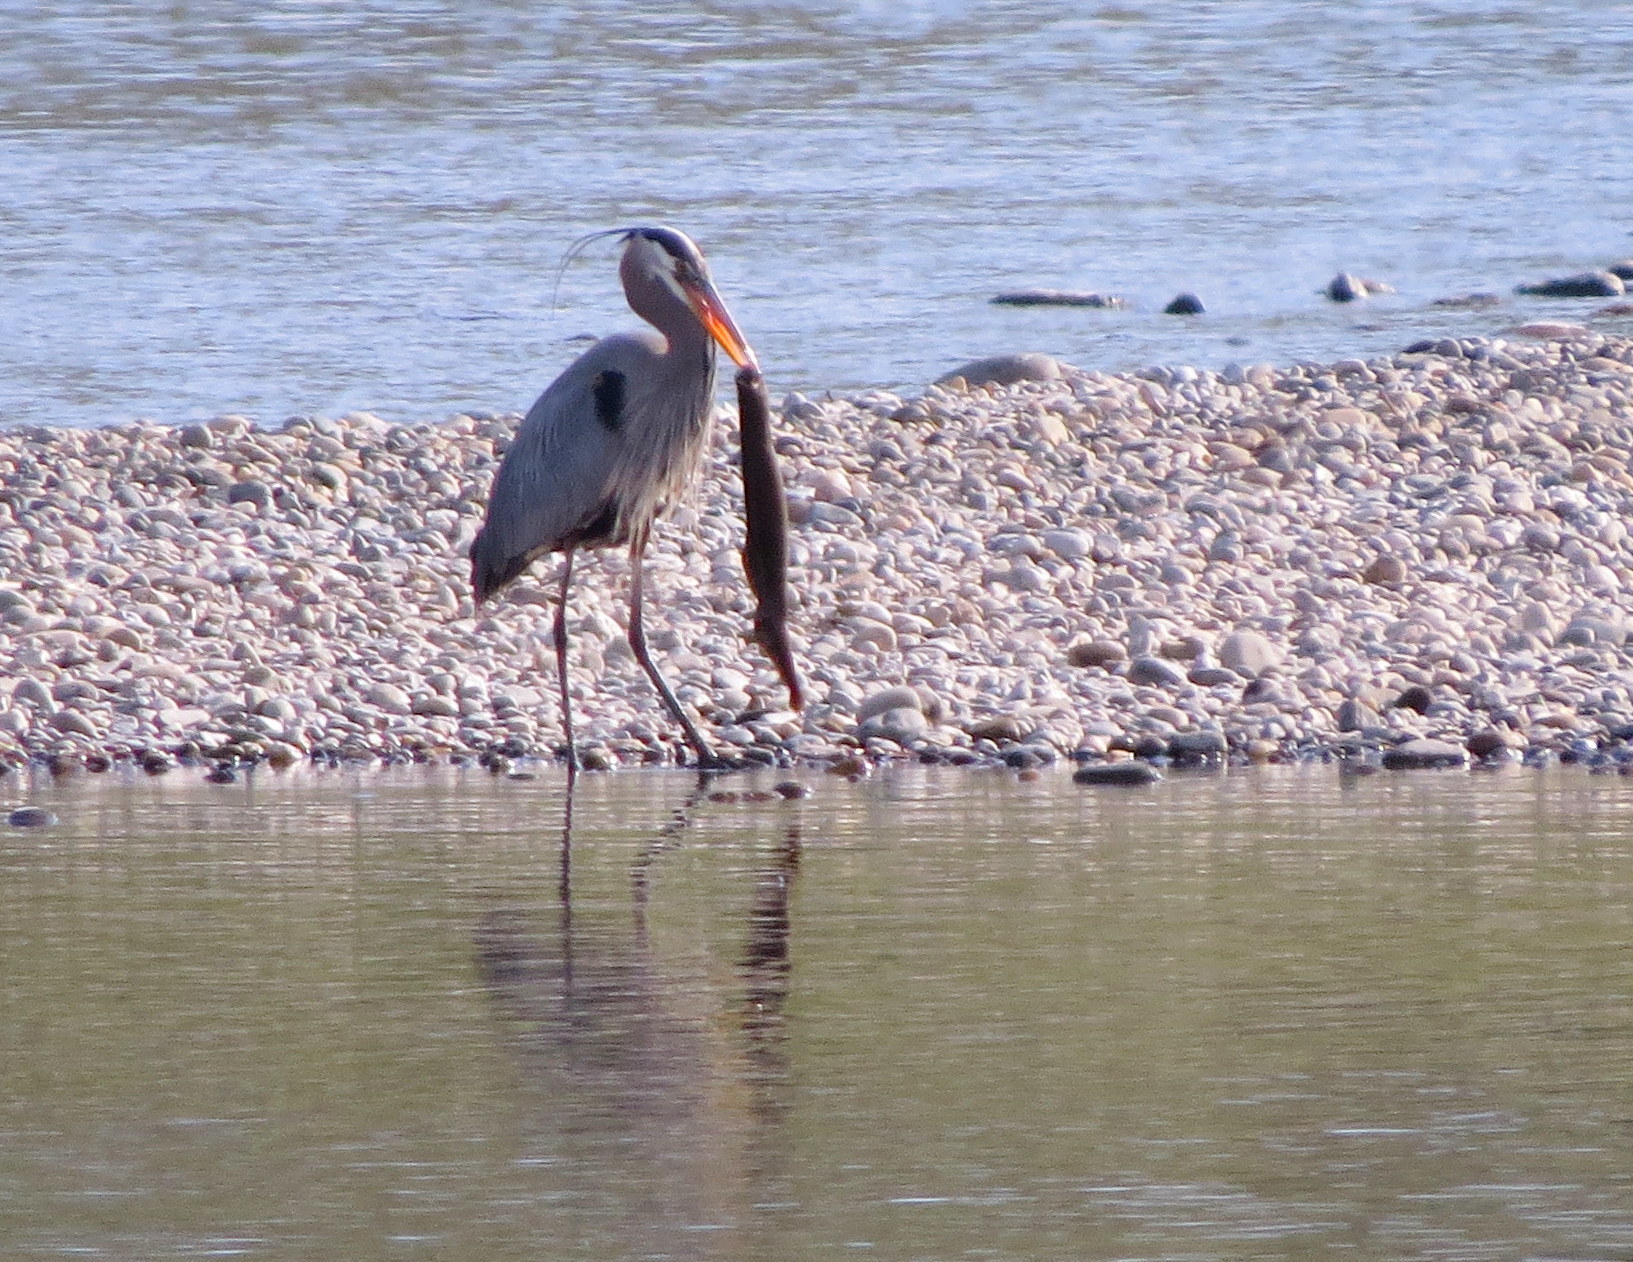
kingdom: Animalia
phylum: Chordata
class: Aves
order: Pelecaniformes
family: Ardeidae
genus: Ardea
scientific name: Ardea herodias
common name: Great blue heron
